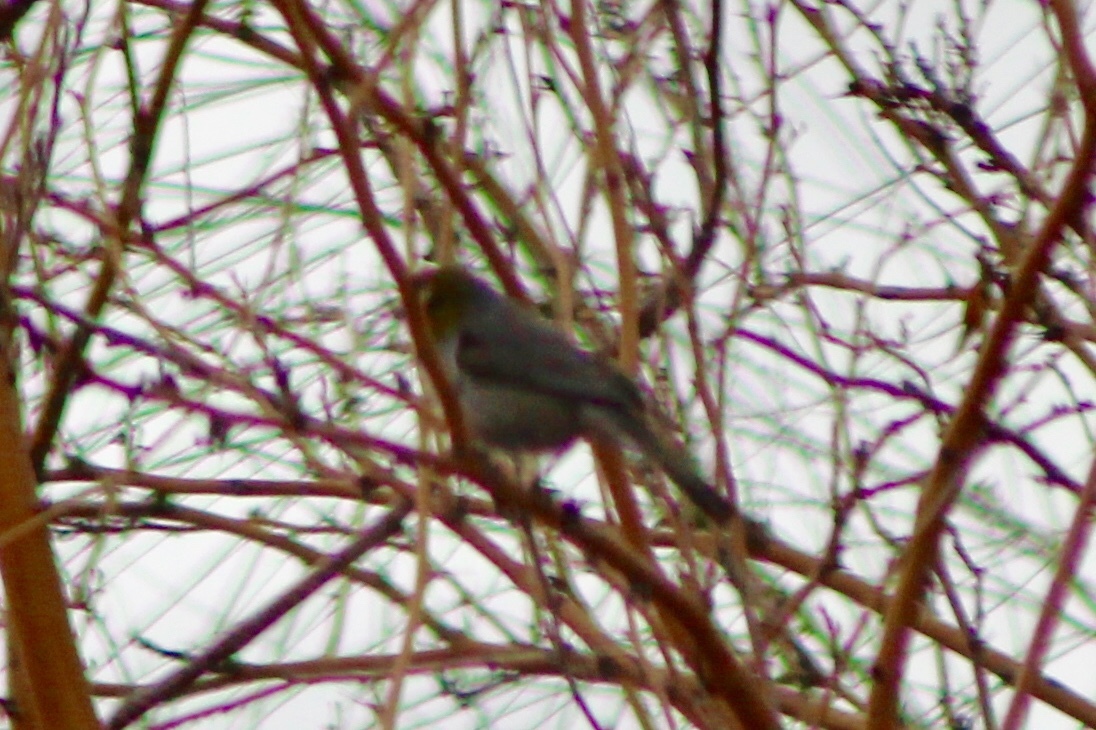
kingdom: Animalia
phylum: Chordata
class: Aves
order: Passeriformes
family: Remizidae
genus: Auriparus
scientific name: Auriparus flaviceps
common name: Verdin
